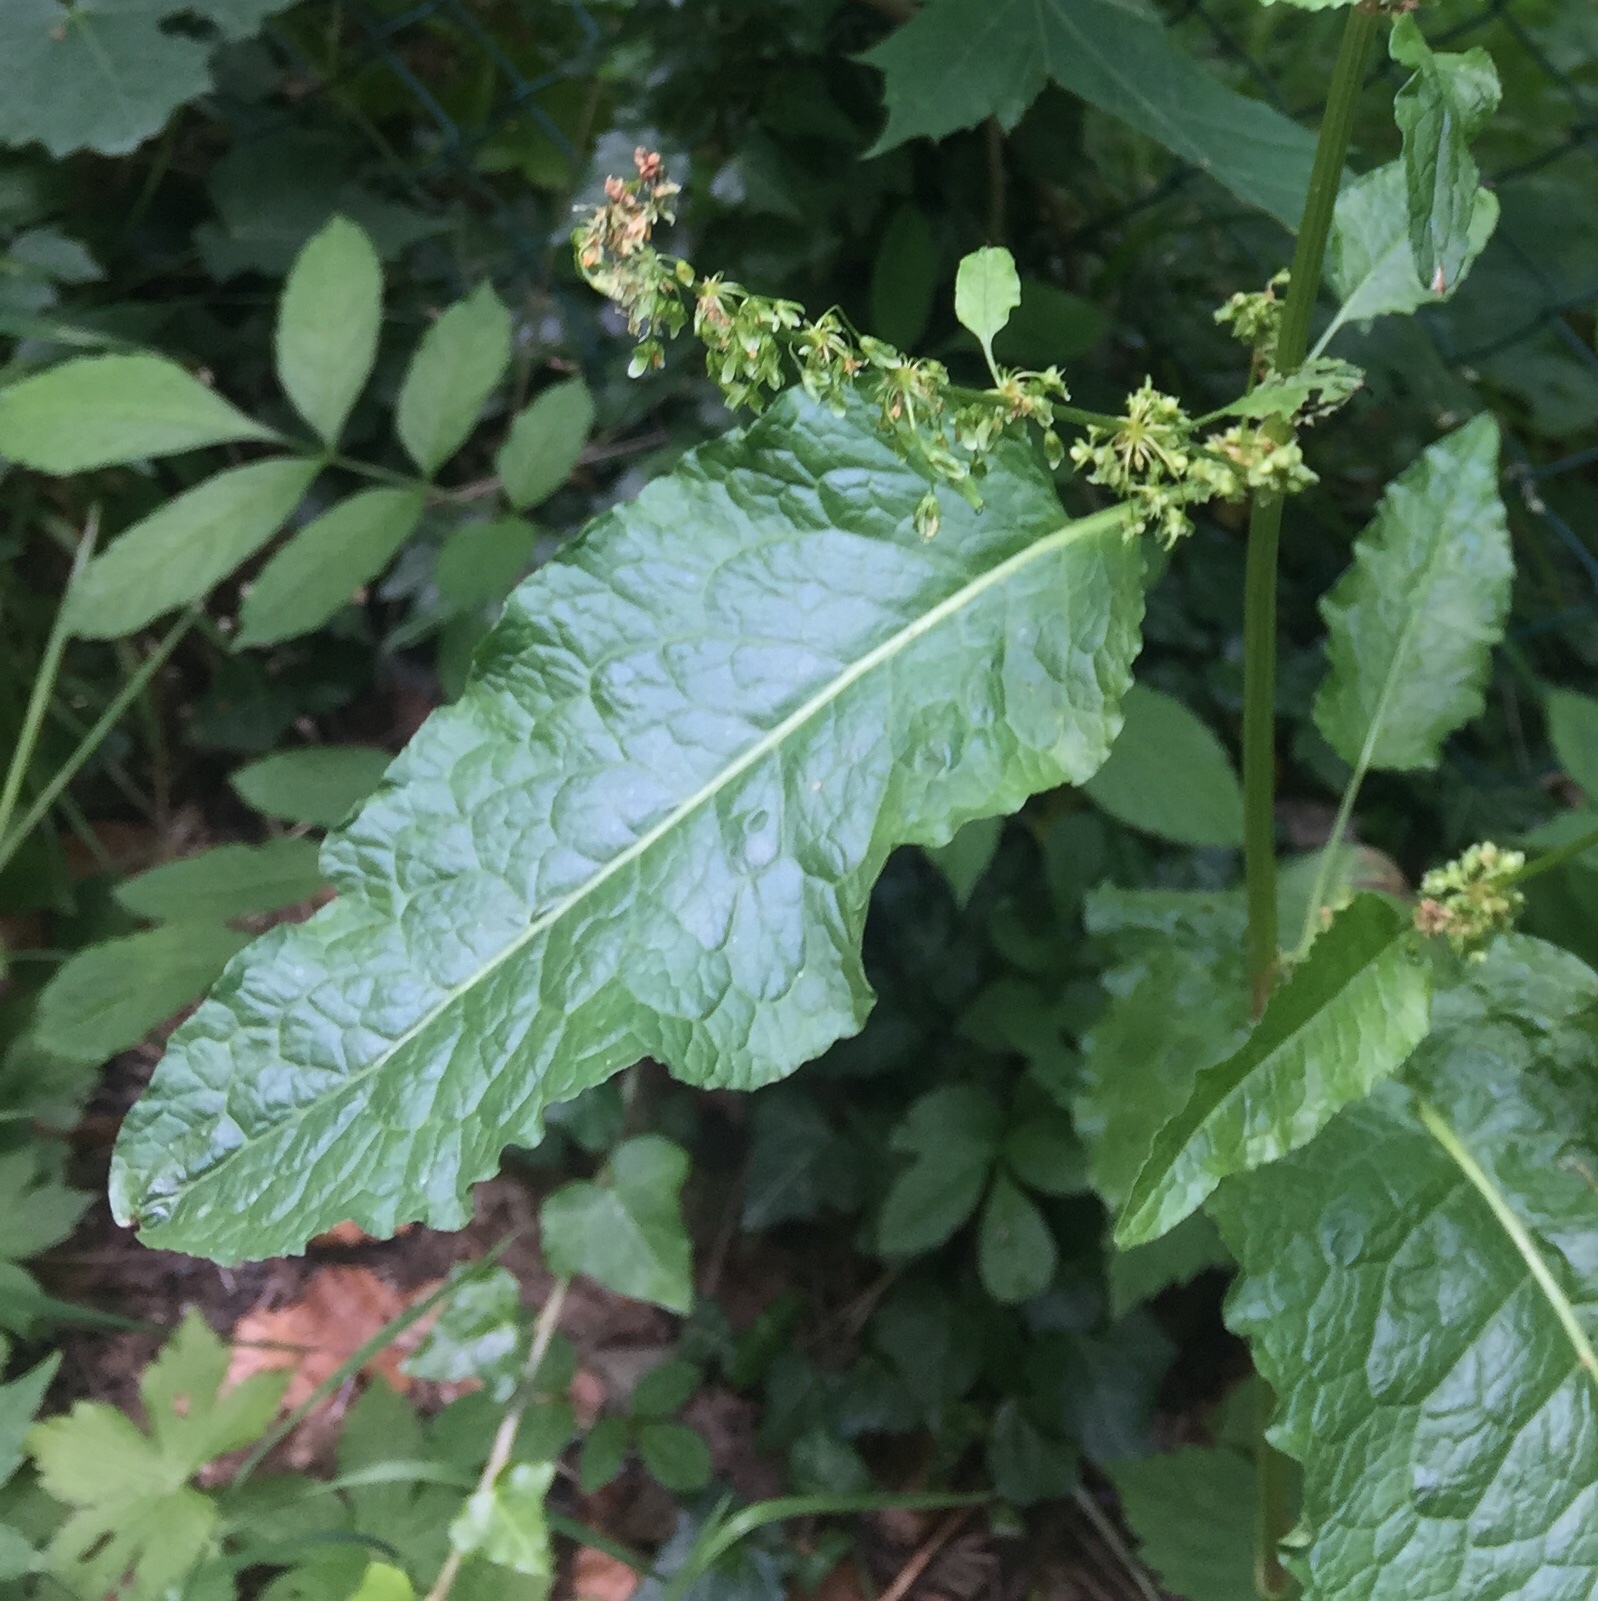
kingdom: Plantae
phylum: Tracheophyta
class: Magnoliopsida
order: Caryophyllales
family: Polygonaceae
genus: Rumex
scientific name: Rumex obtusifolius
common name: Bitter dock
